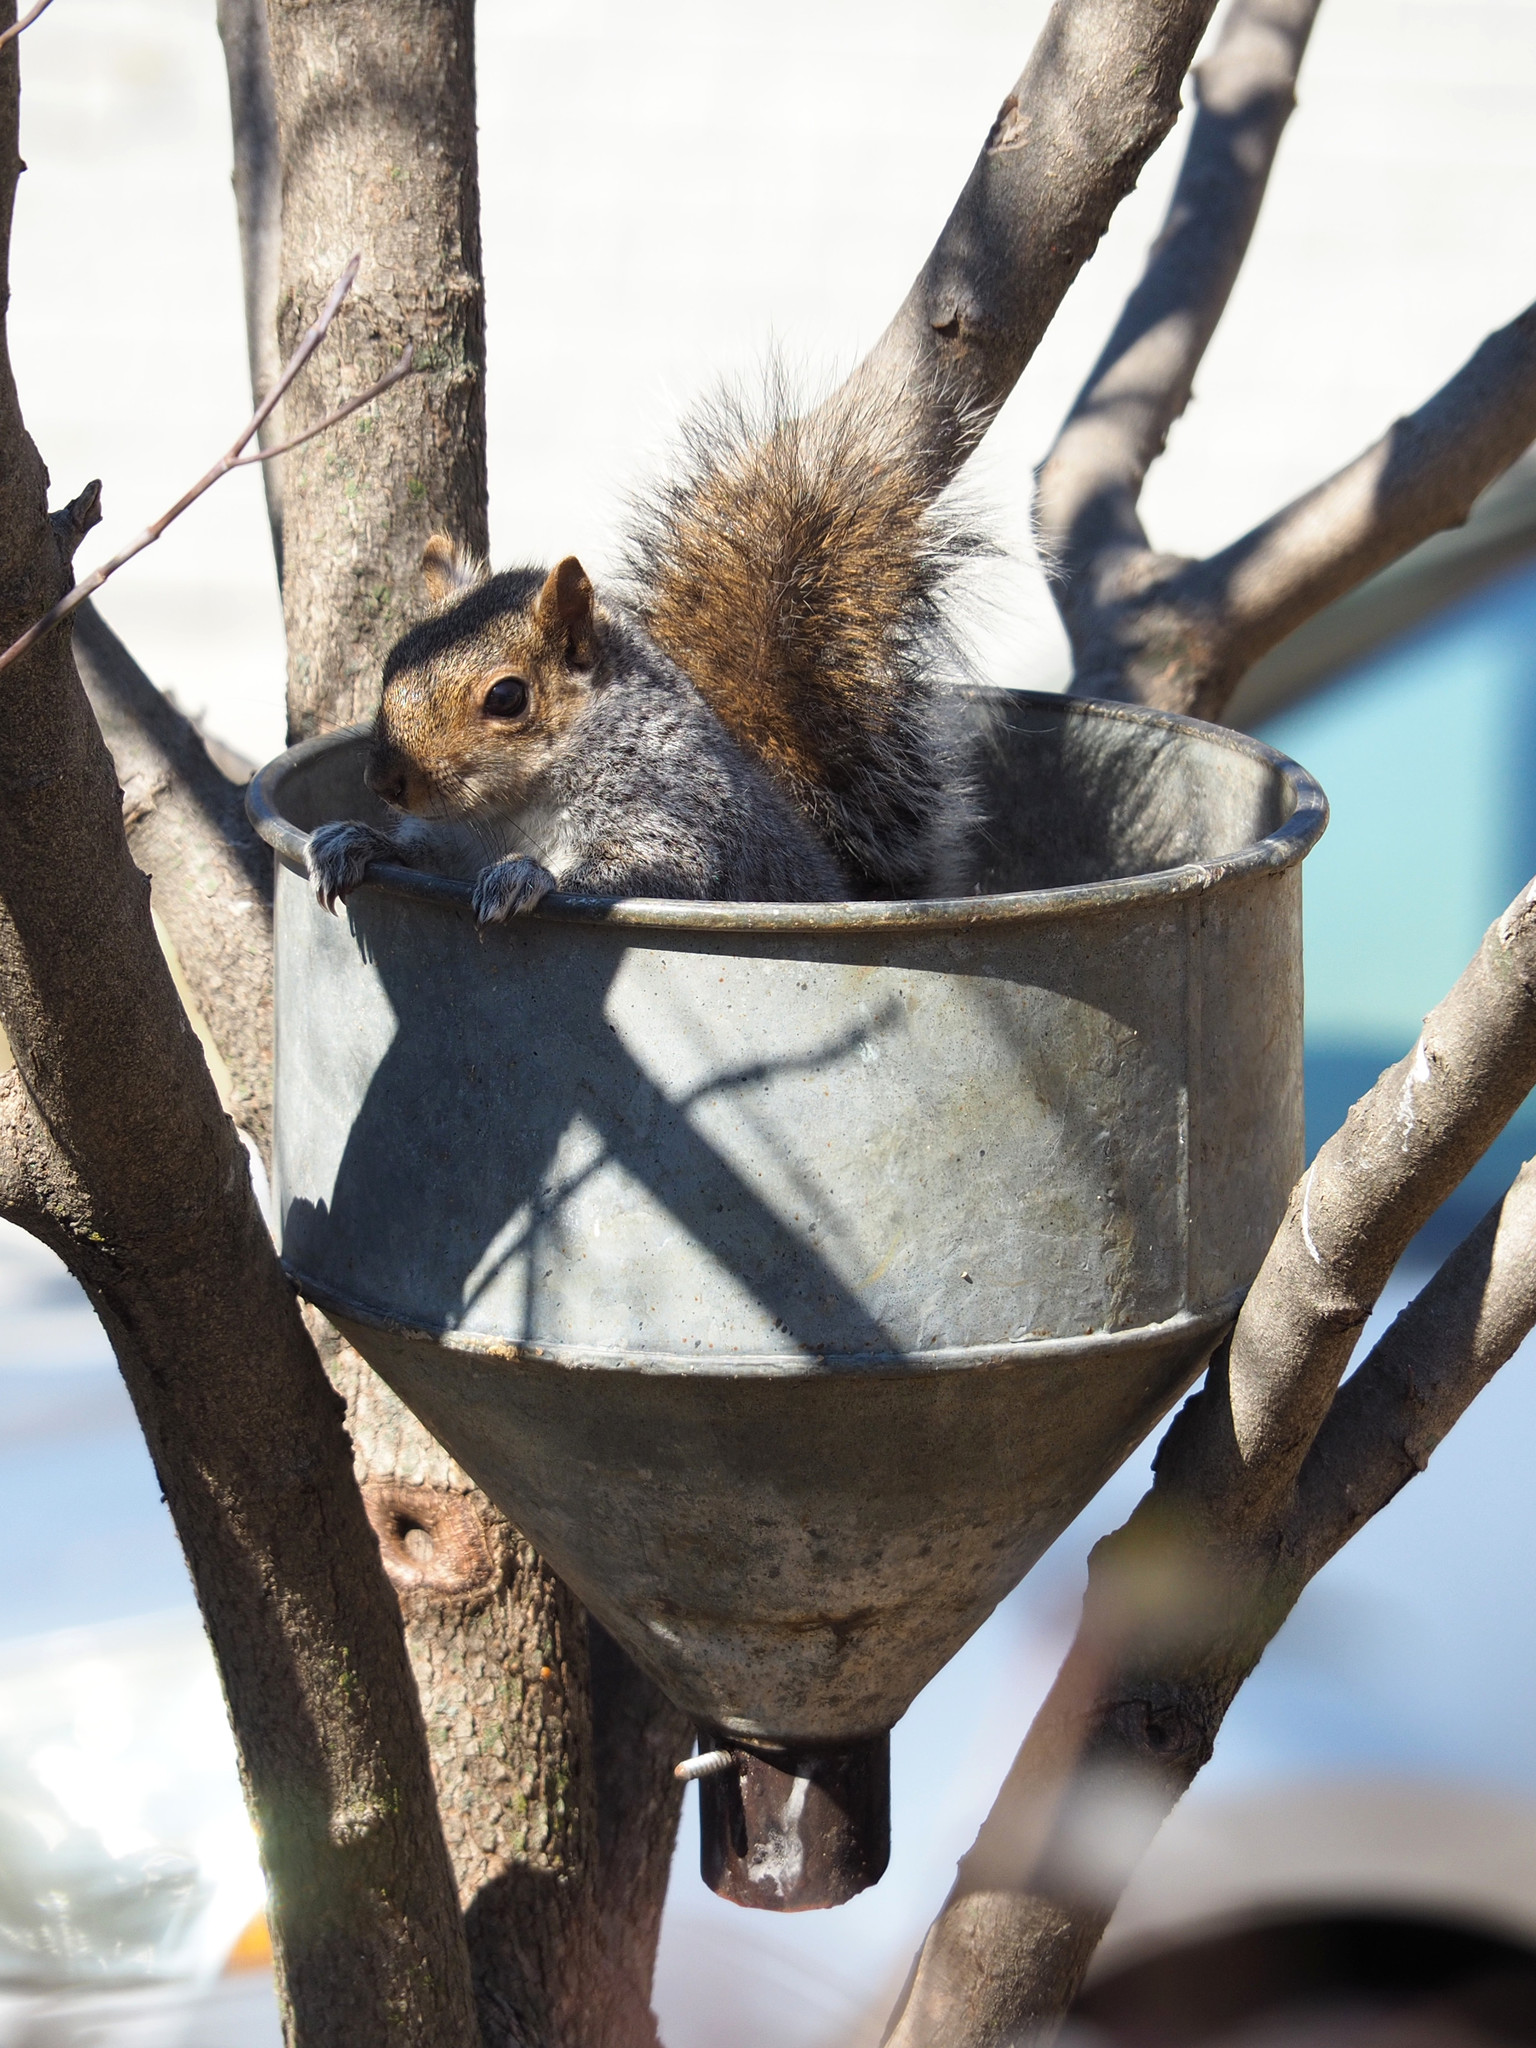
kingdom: Animalia
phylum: Chordata
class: Mammalia
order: Rodentia
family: Sciuridae
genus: Sciurus
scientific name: Sciurus carolinensis
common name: Eastern gray squirrel
